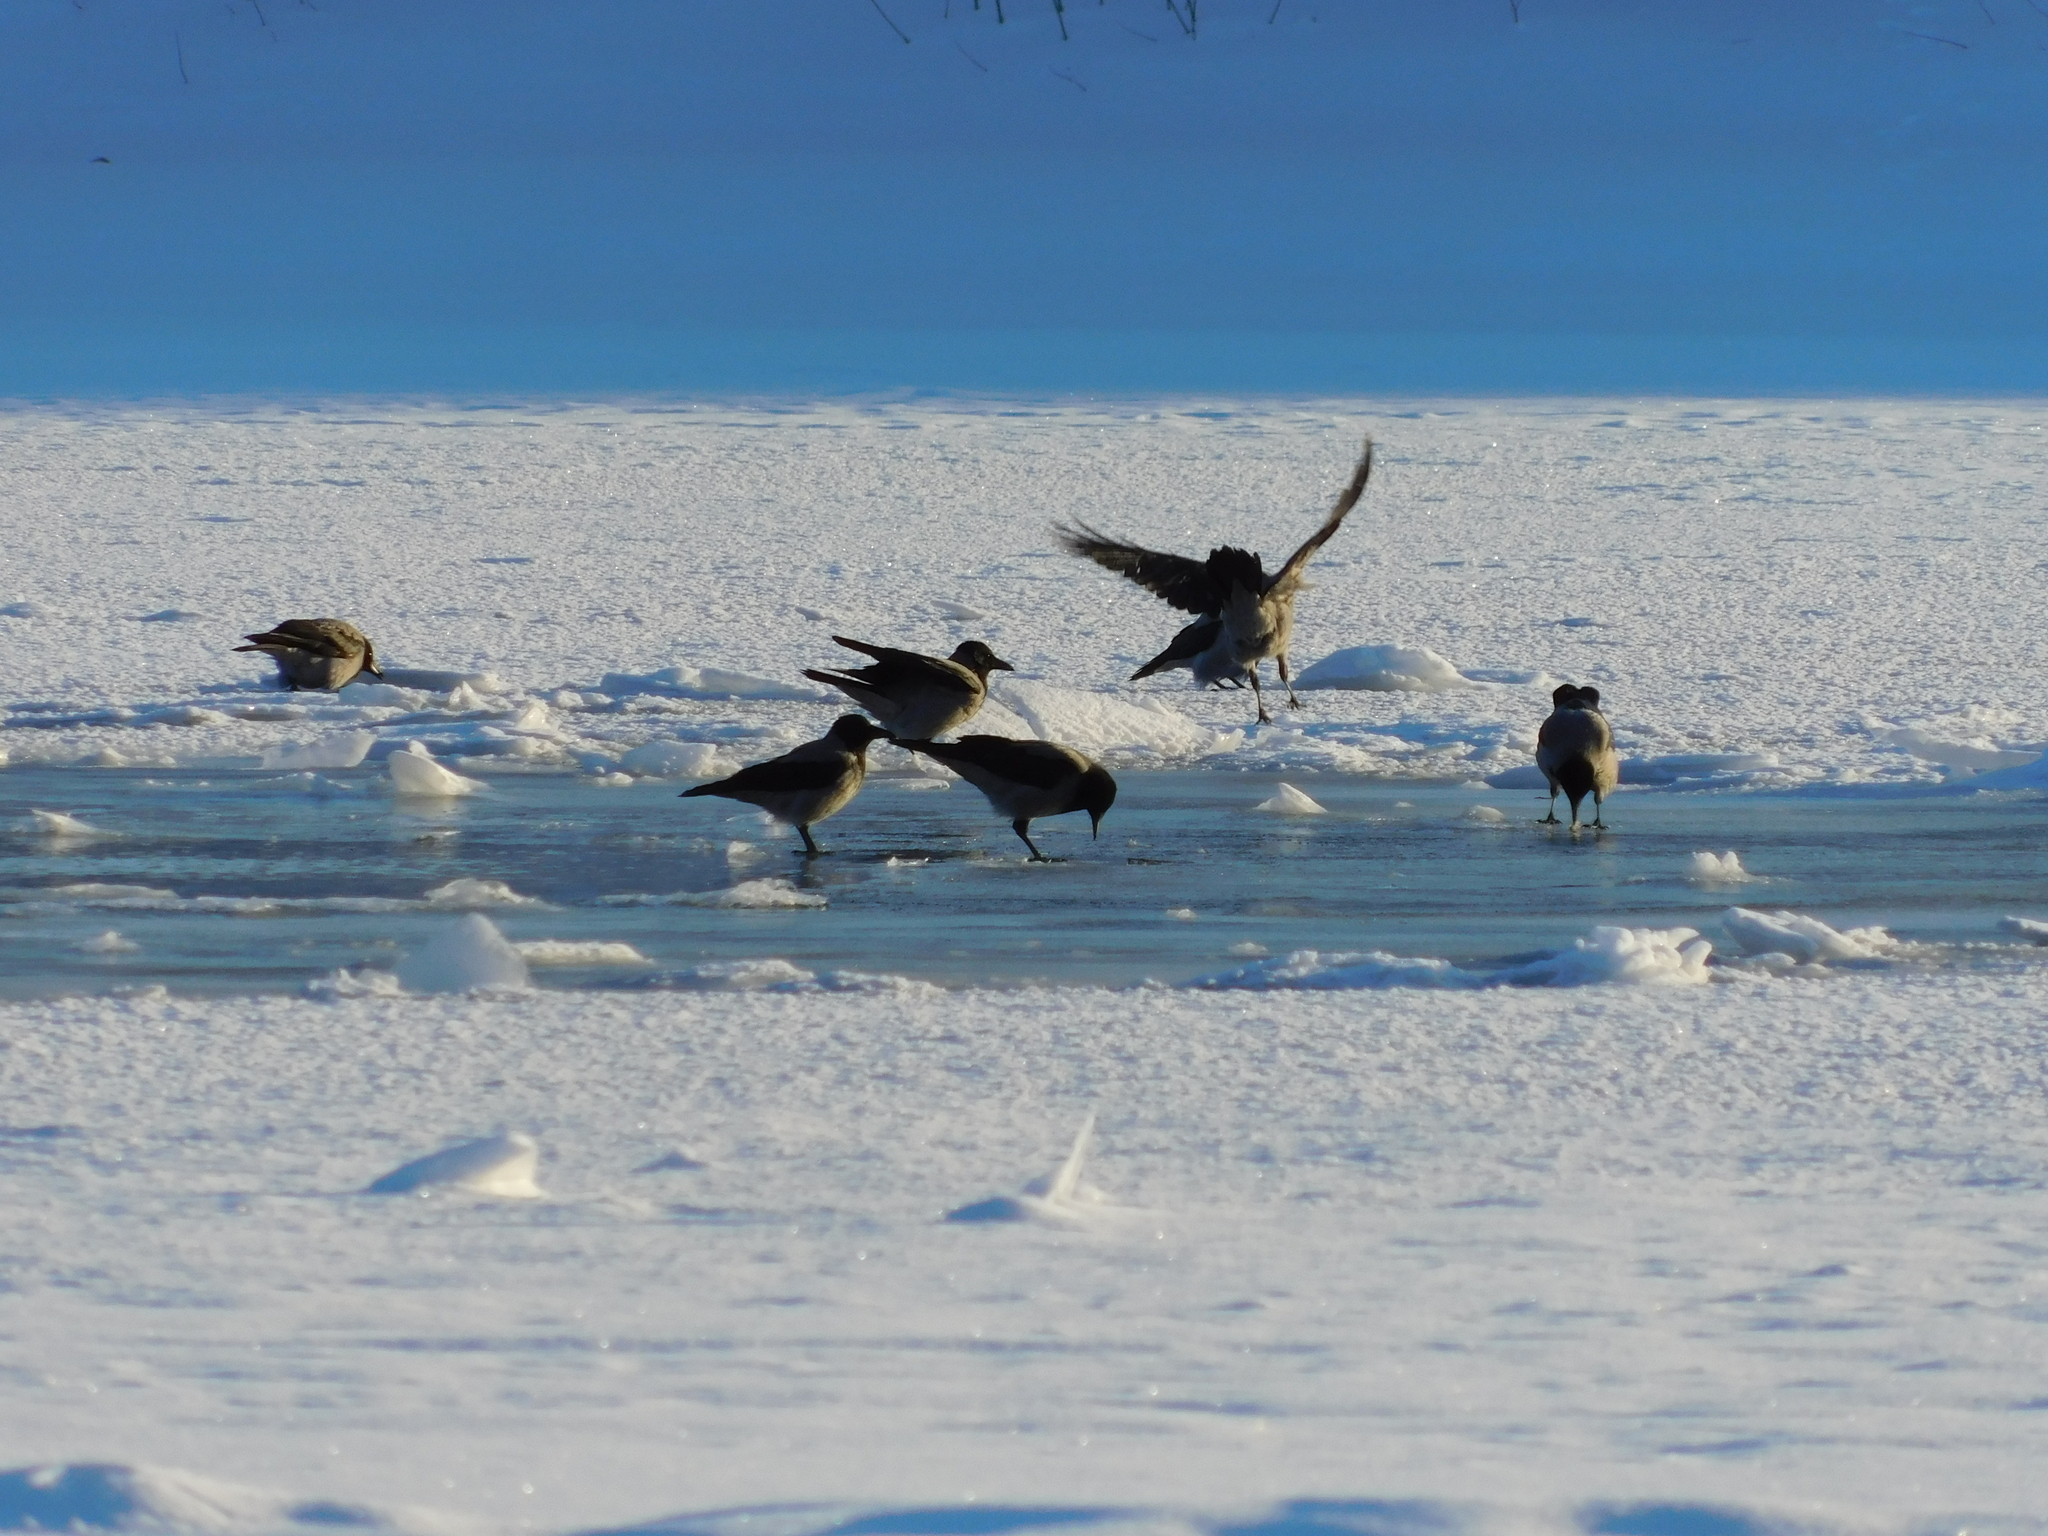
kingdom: Animalia
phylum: Chordata
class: Aves
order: Passeriformes
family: Corvidae
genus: Corvus
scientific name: Corvus cornix
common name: Hooded crow
